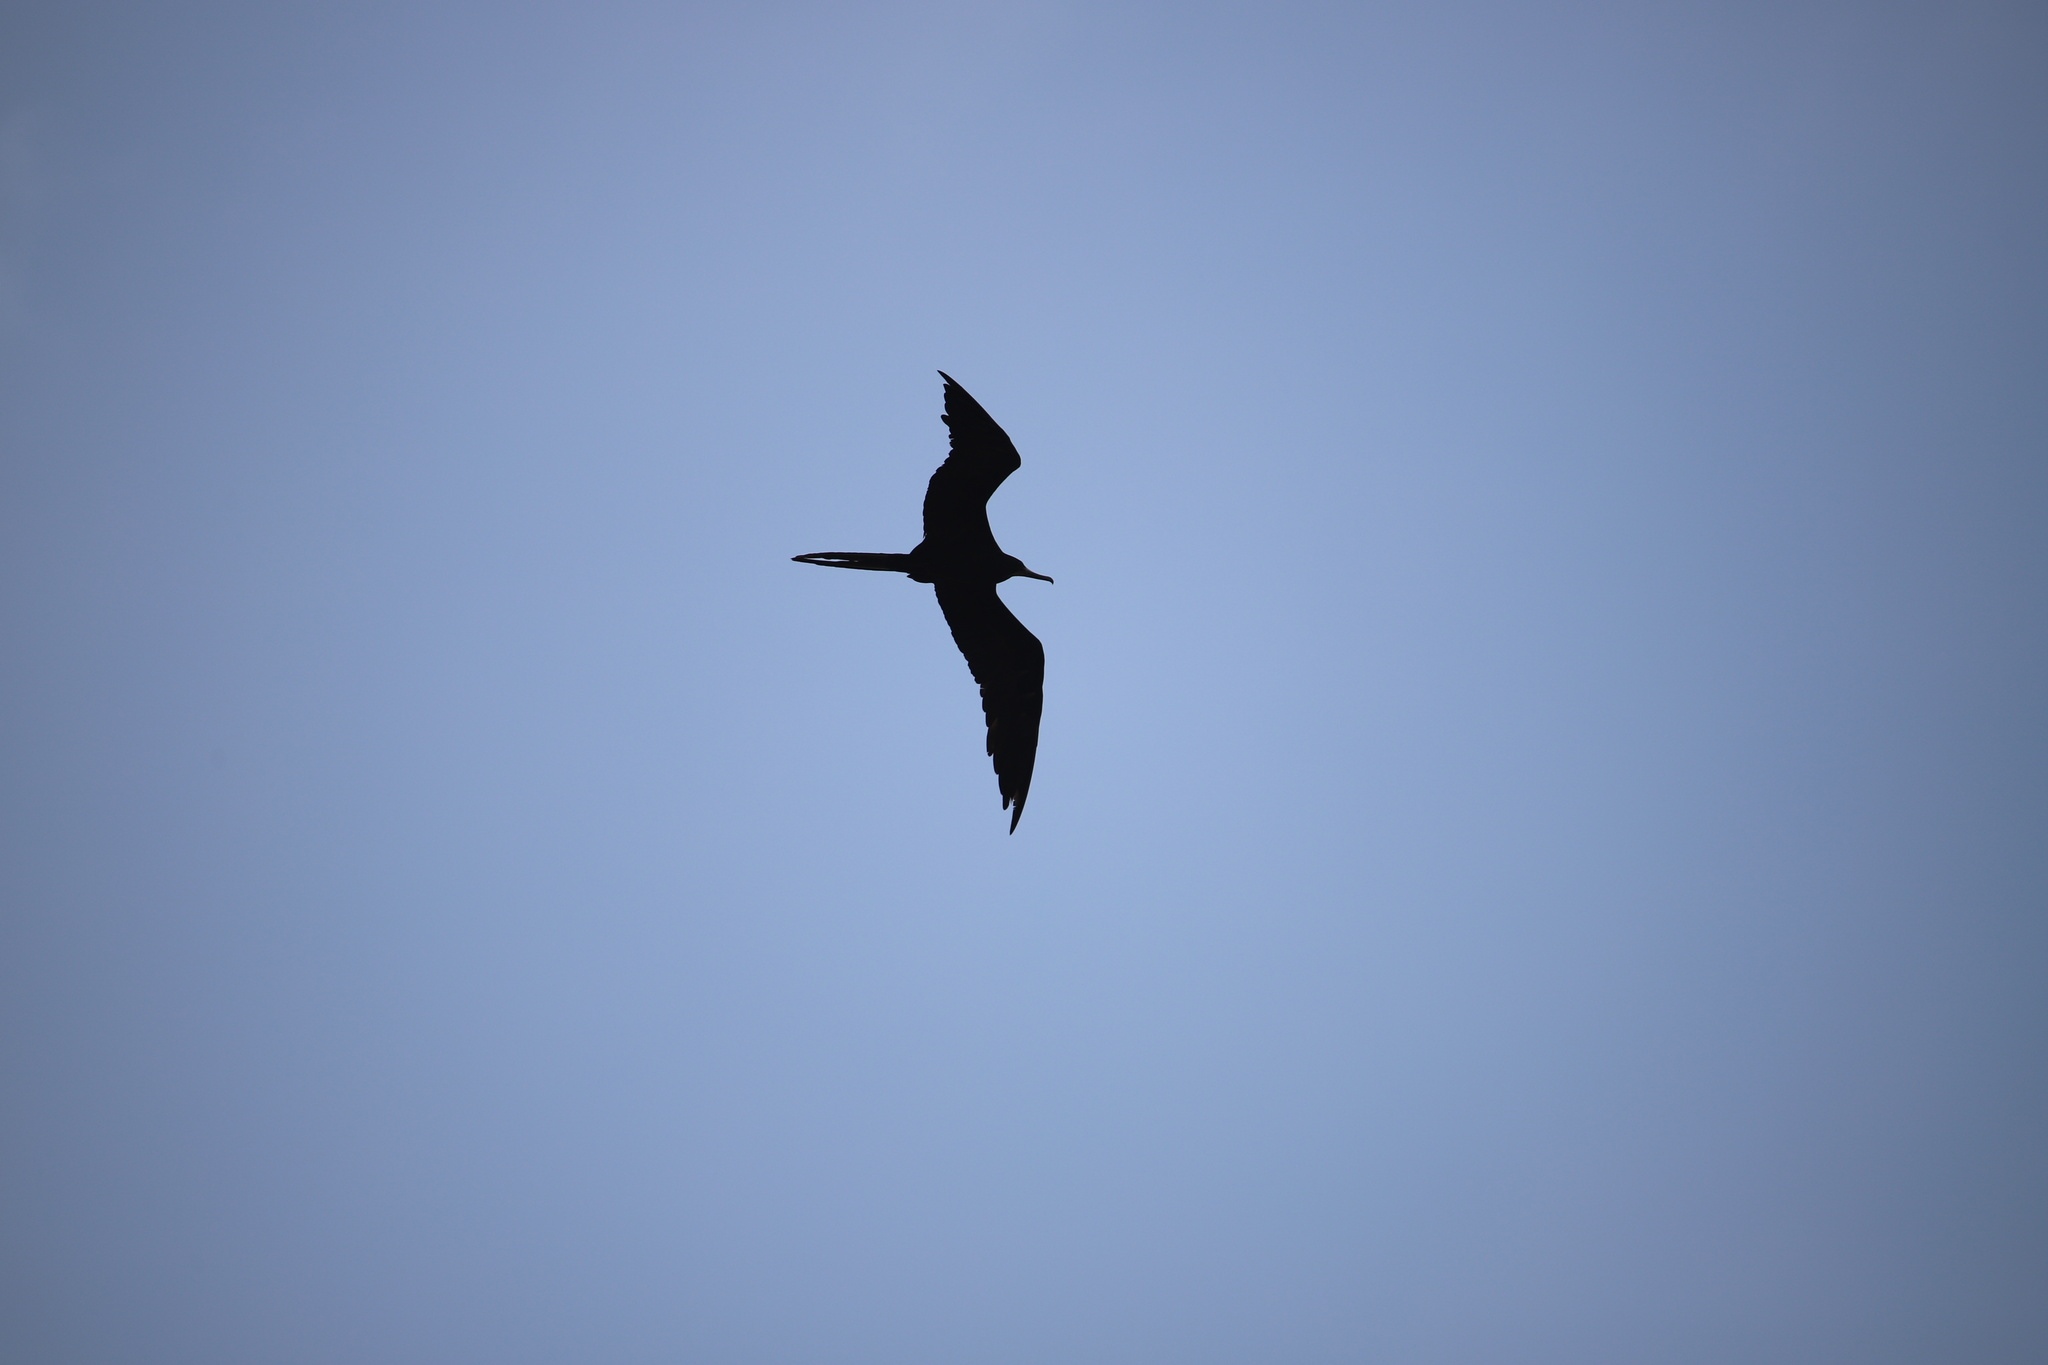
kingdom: Animalia
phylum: Chordata
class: Aves
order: Suliformes
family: Fregatidae
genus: Fregata
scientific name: Fregata magnificens
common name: Magnificent frigatebird
